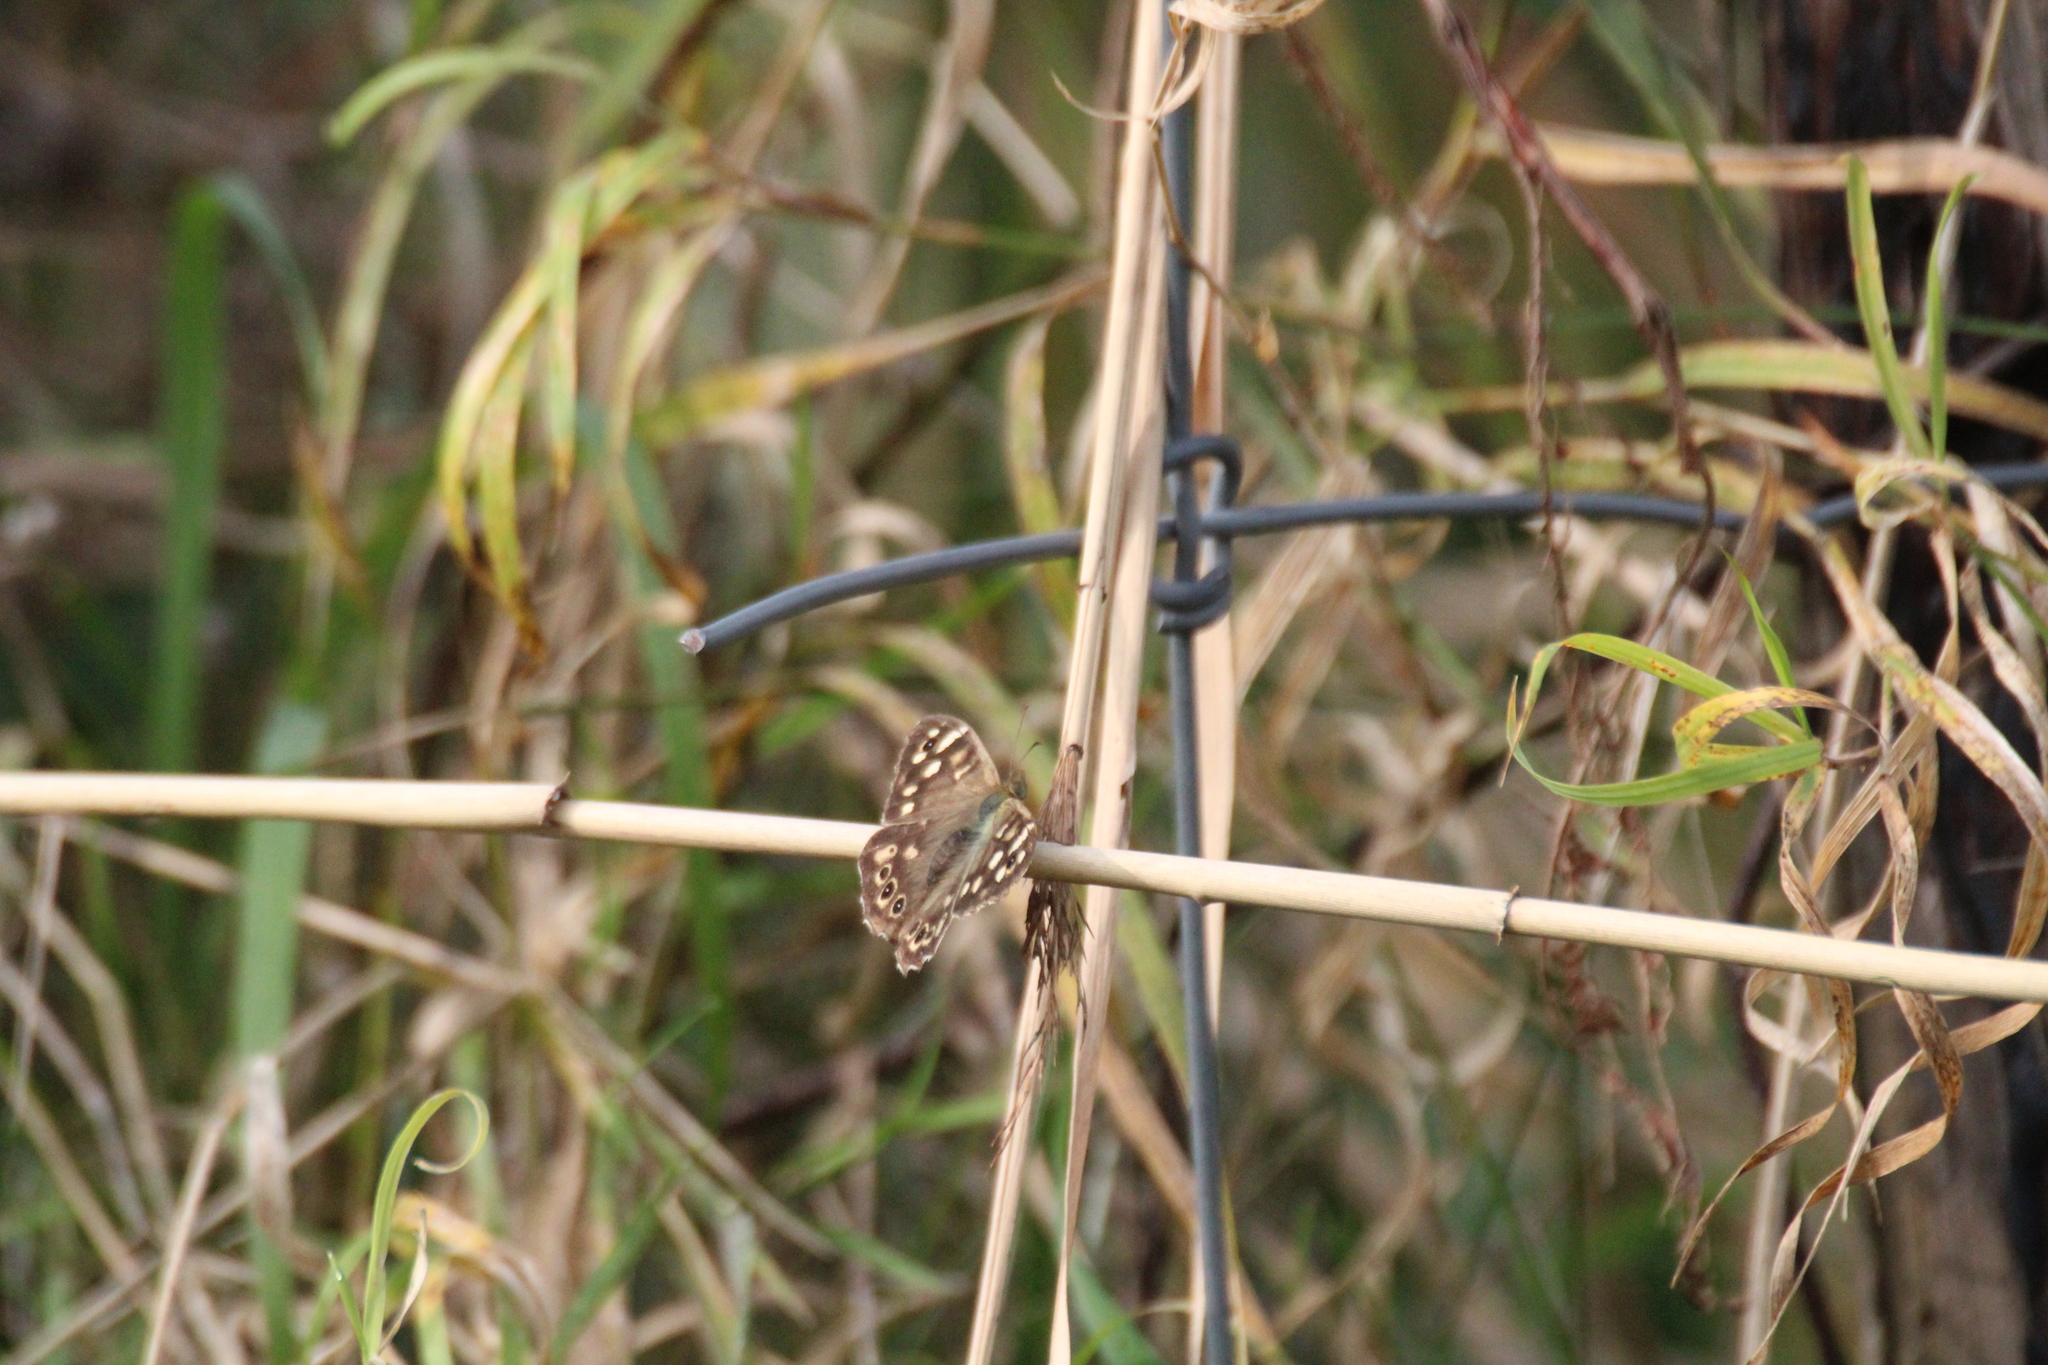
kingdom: Animalia
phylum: Arthropoda
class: Insecta
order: Lepidoptera
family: Nymphalidae
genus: Pararge
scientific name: Pararge aegeria
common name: Speckled wood
